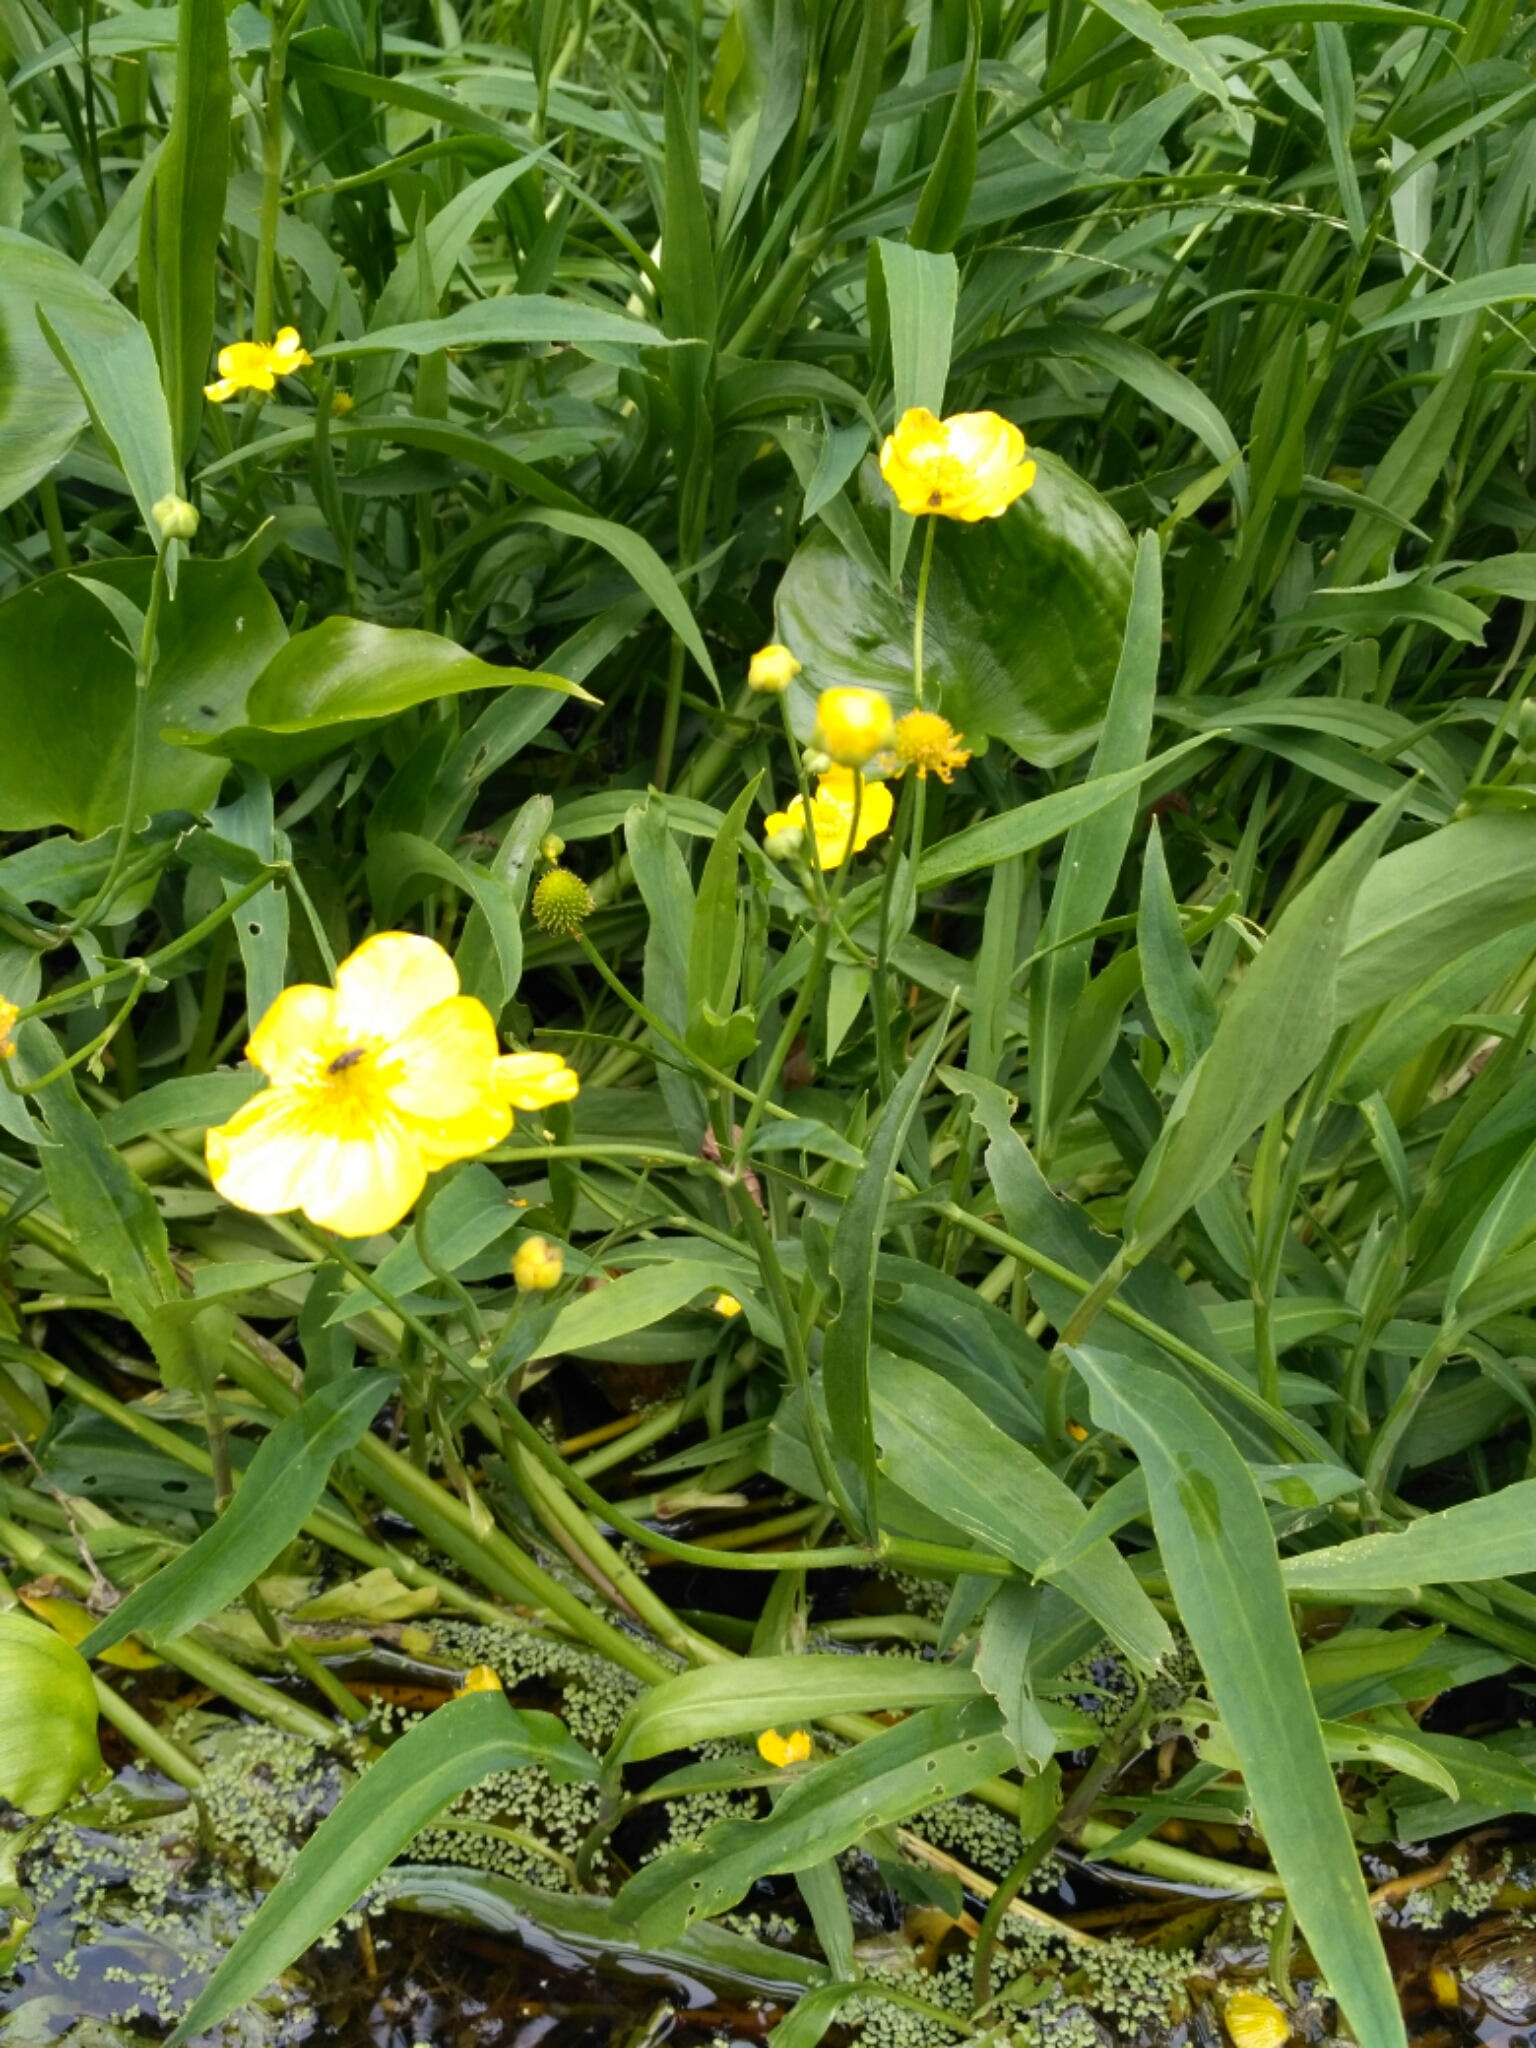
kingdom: Plantae
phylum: Tracheophyta
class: Magnoliopsida
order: Ranunculales
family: Ranunculaceae
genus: Ranunculus
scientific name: Ranunculus lingua
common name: Greater spearwort
